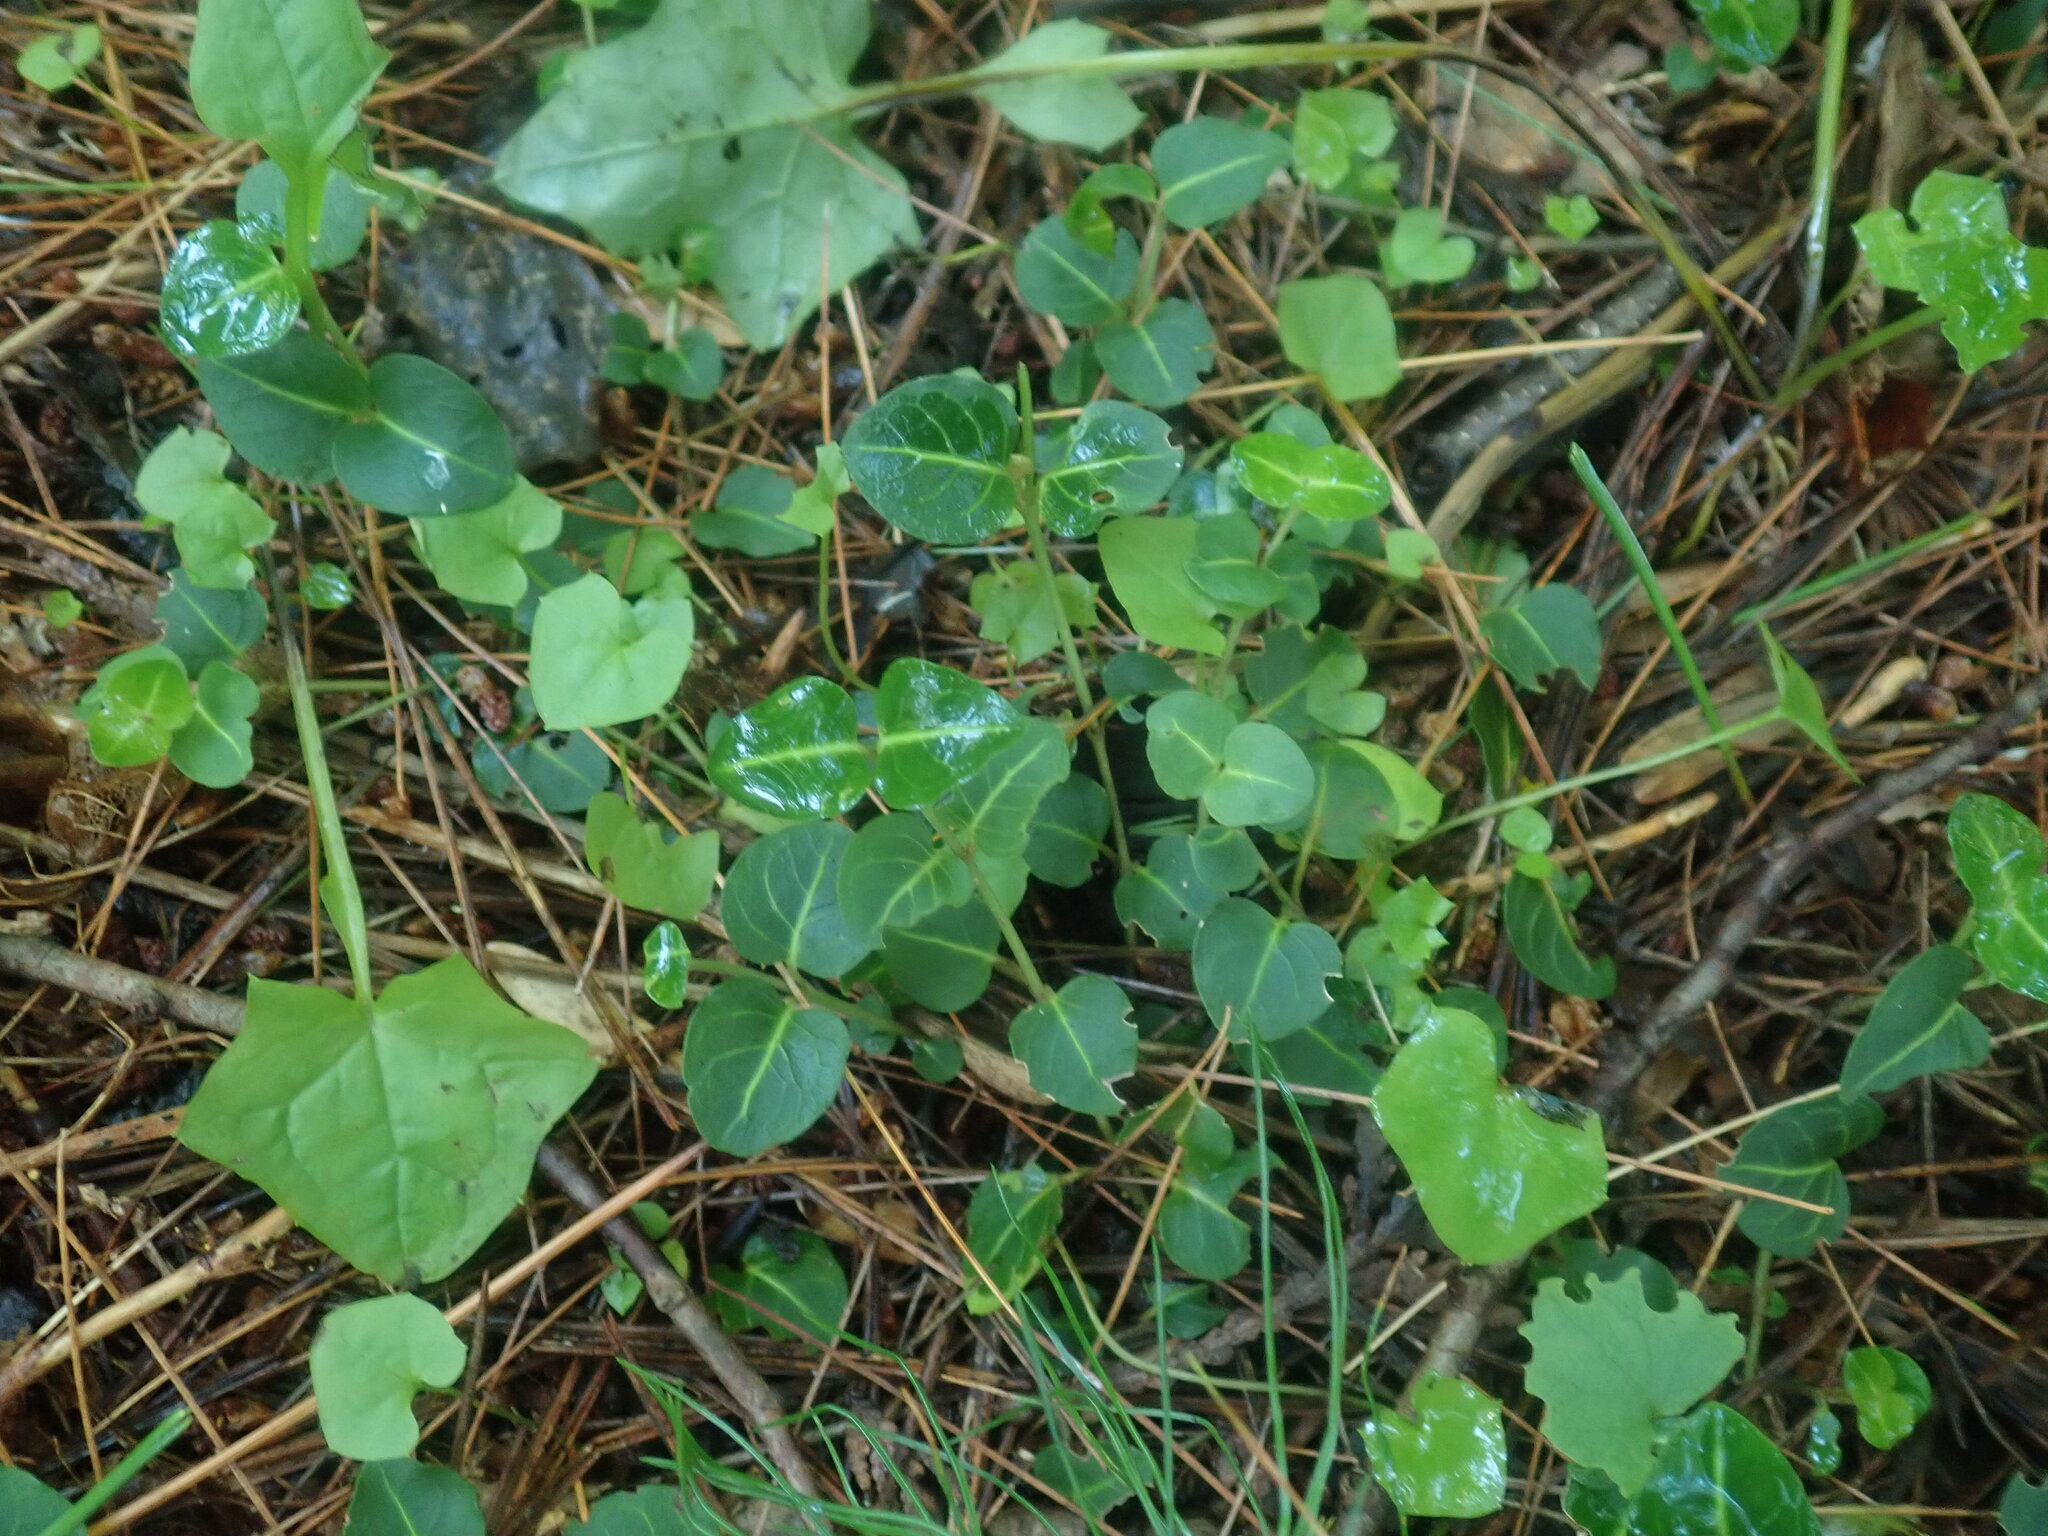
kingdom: Plantae
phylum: Tracheophyta
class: Magnoliopsida
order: Gentianales
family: Rubiaceae
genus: Mitchella
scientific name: Mitchella repens
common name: Partridge-berry
